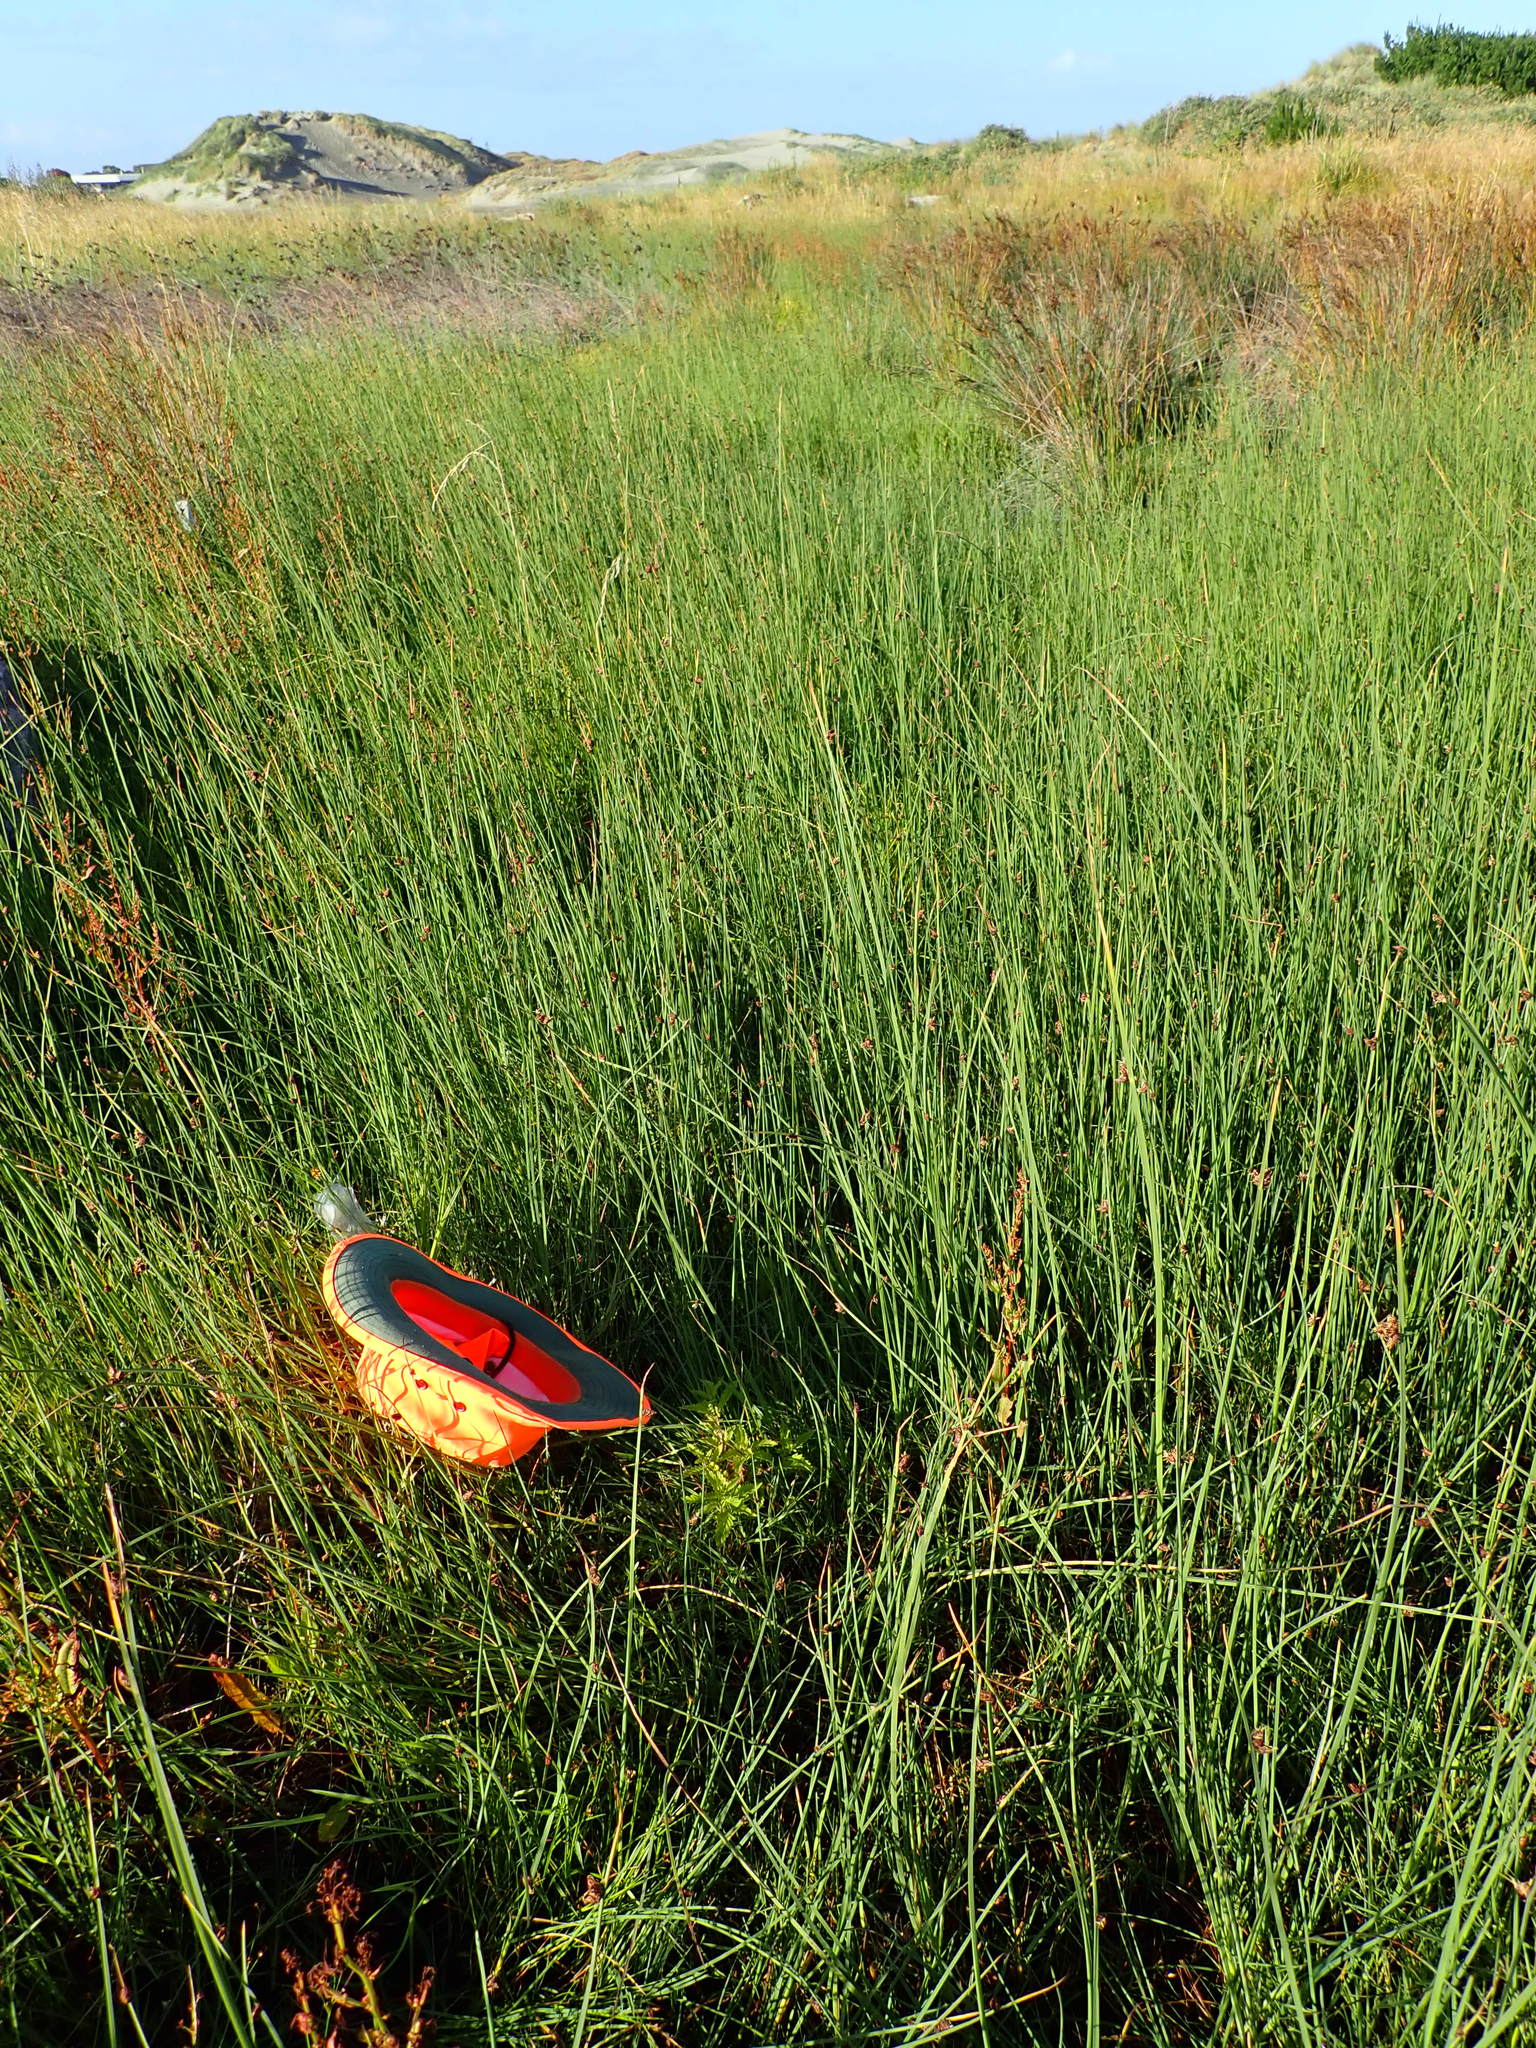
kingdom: Plantae
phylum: Tracheophyta
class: Magnoliopsida
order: Lamiales
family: Lamiaceae
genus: Lycopus
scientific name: Lycopus europaeus
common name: European bugleweed
